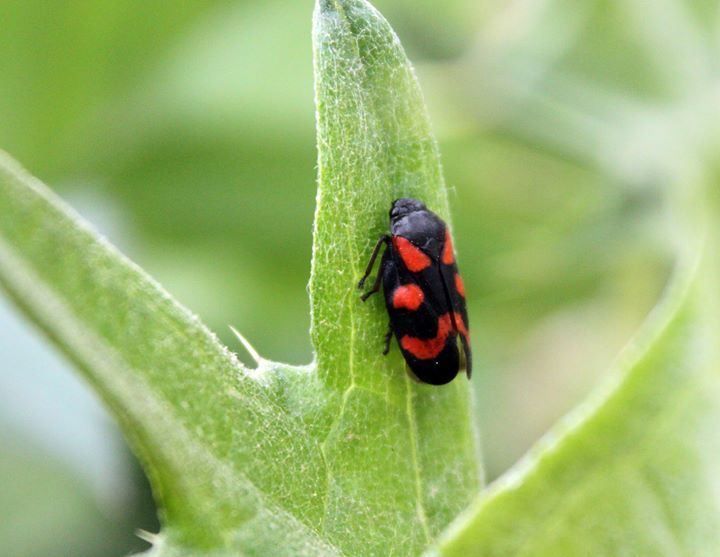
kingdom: Animalia
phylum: Arthropoda
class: Insecta
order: Hemiptera
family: Cercopidae
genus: Cercopis
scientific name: Cercopis vulnerata
